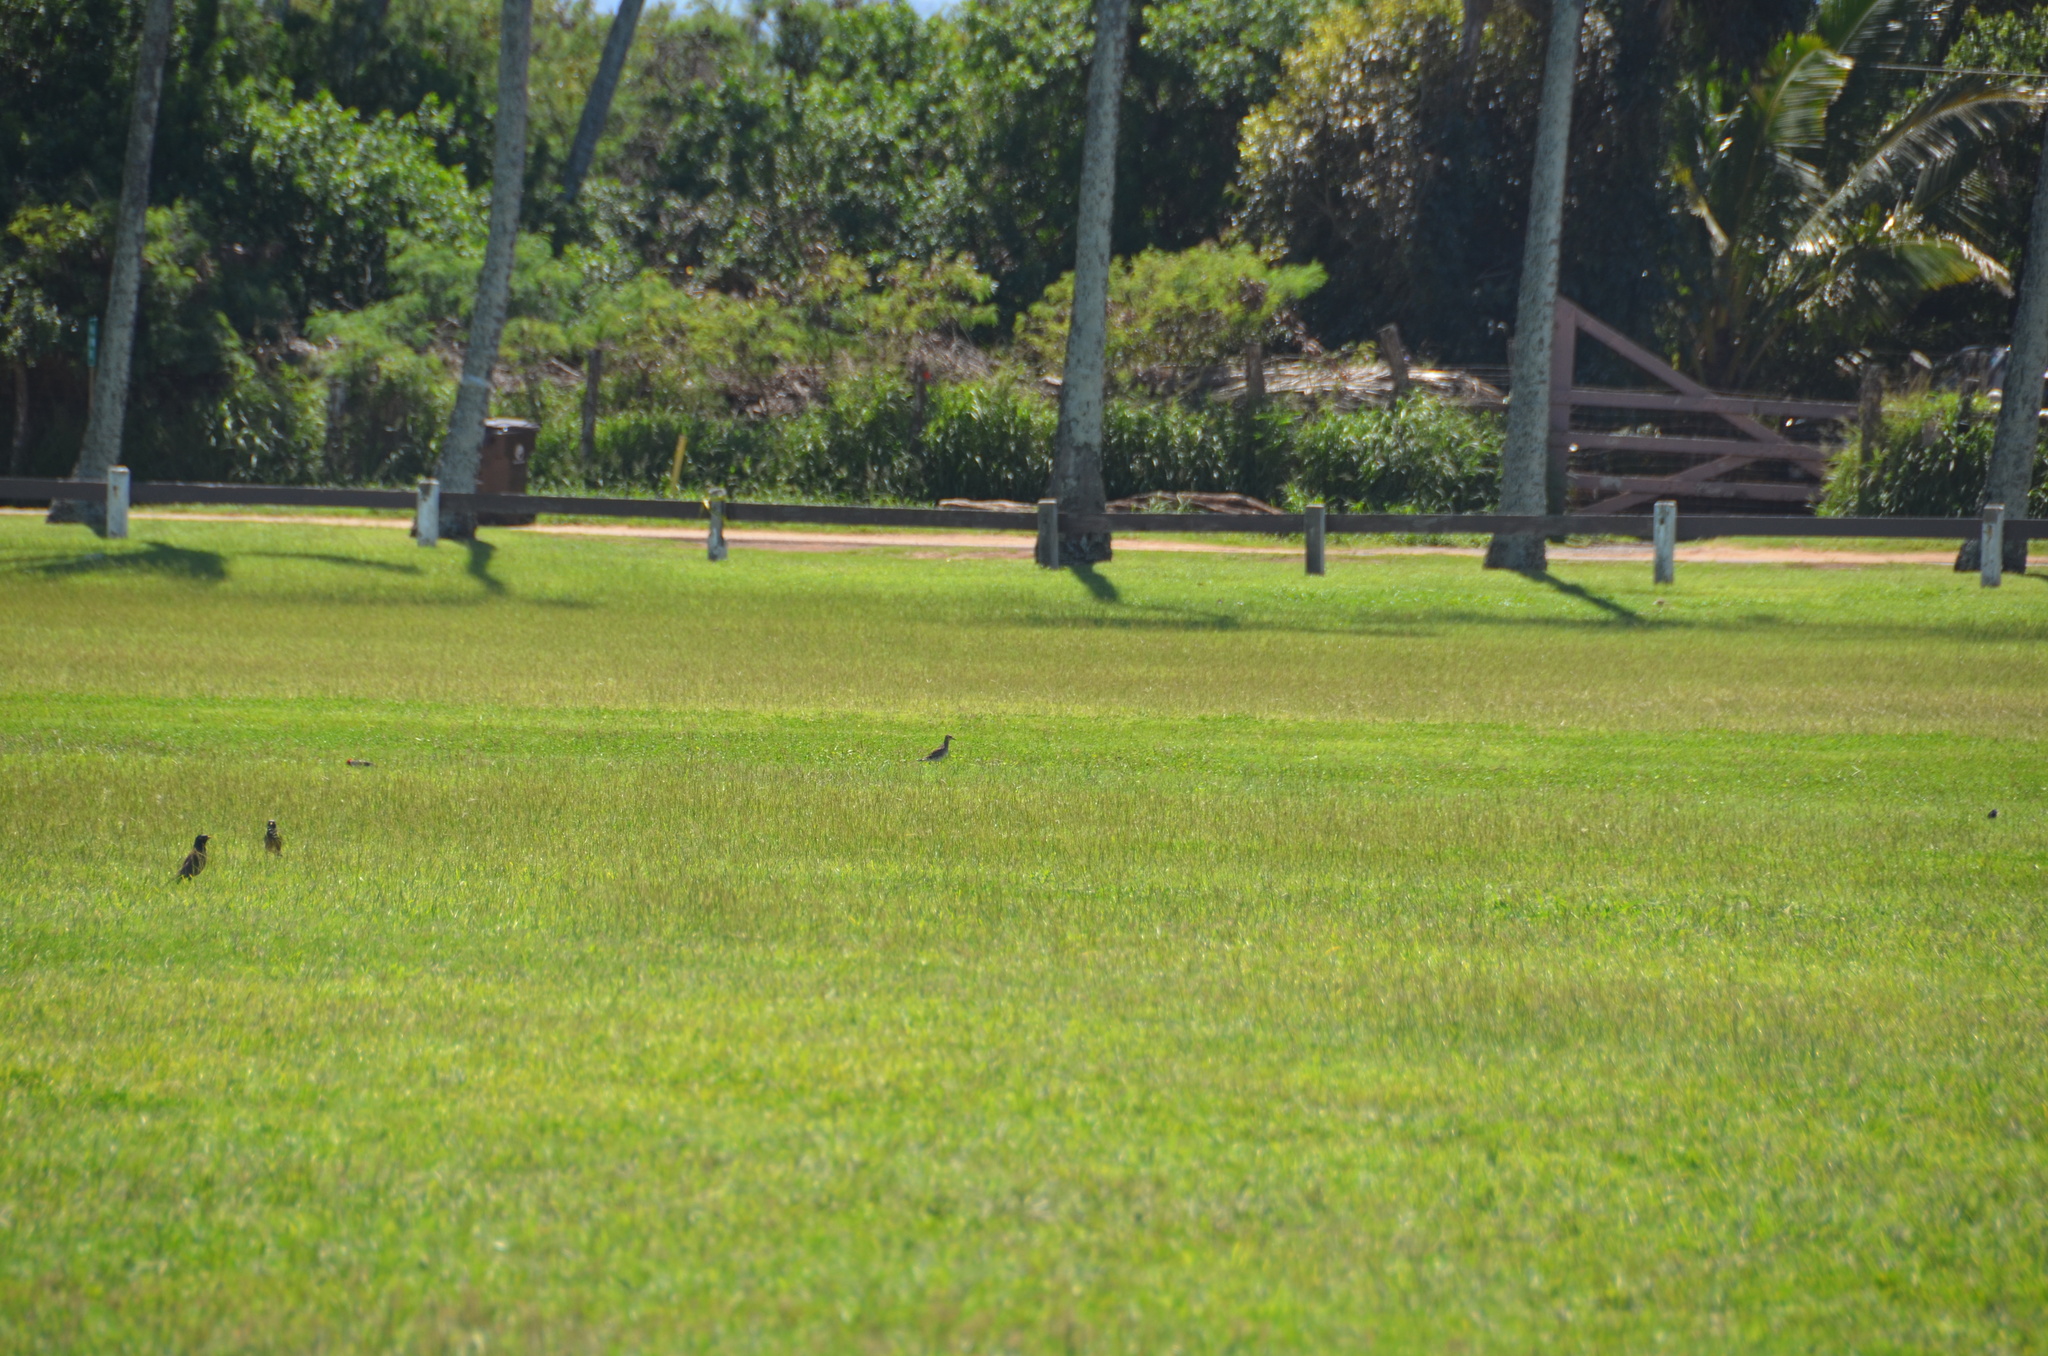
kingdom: Animalia
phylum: Chordata
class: Aves
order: Passeriformes
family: Thraupidae
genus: Paroaria
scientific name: Paroaria coronata
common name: Red-crested cardinal
